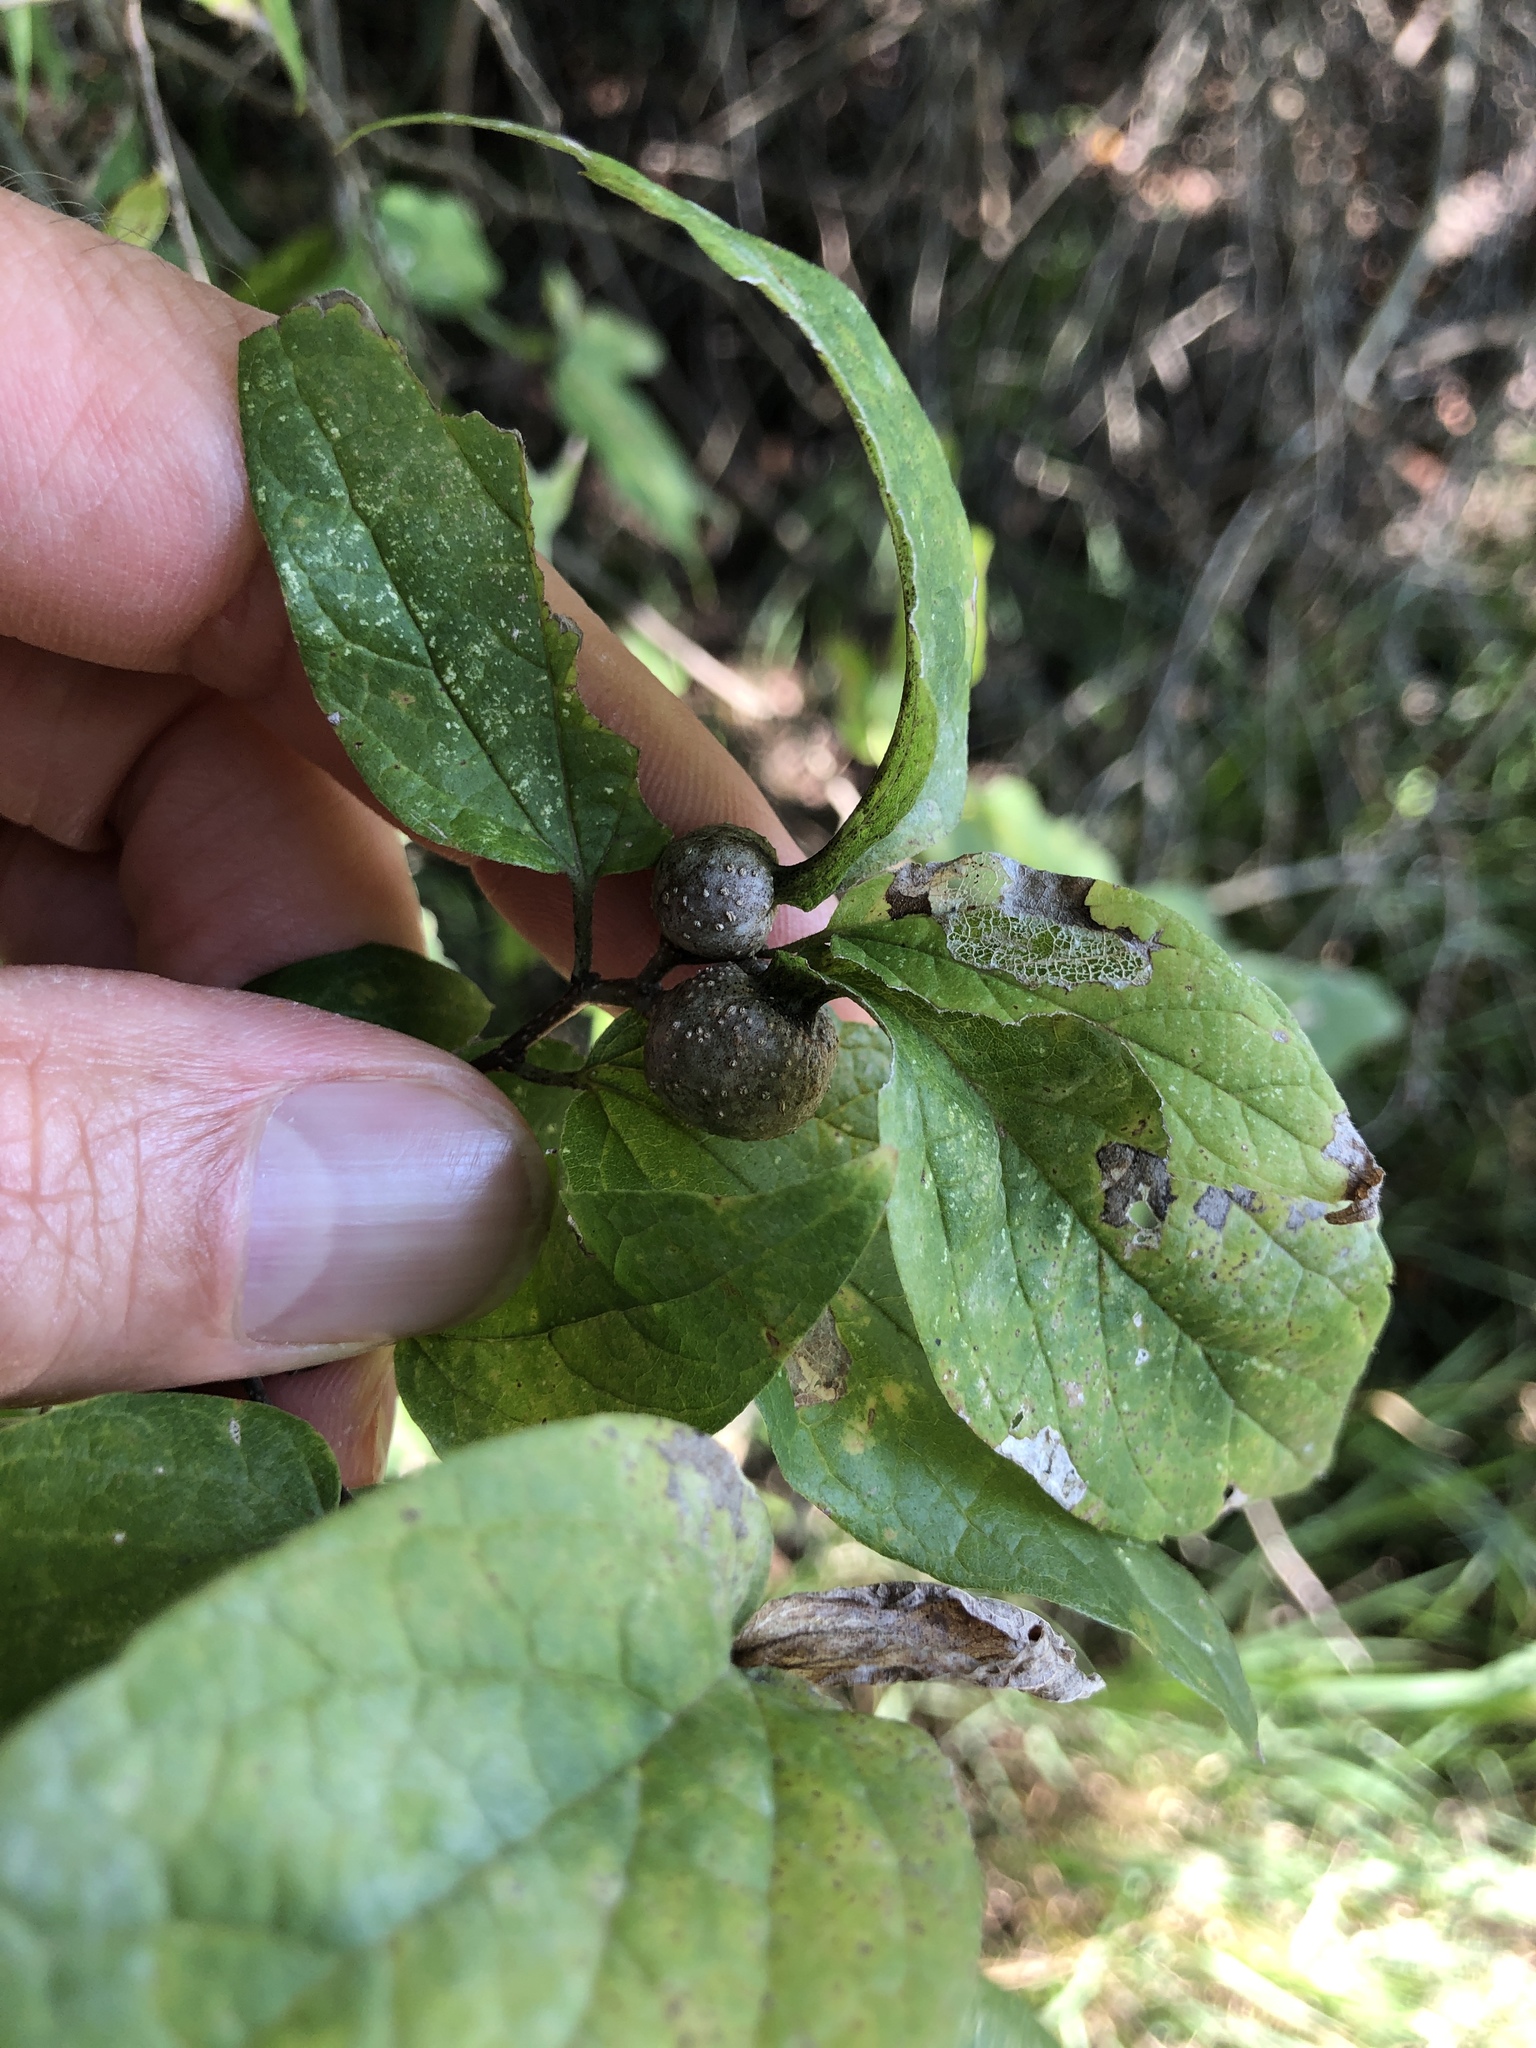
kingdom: Animalia
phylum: Arthropoda
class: Insecta
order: Hemiptera
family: Aphalaridae
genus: Pachypsylla
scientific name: Pachypsylla venusta
